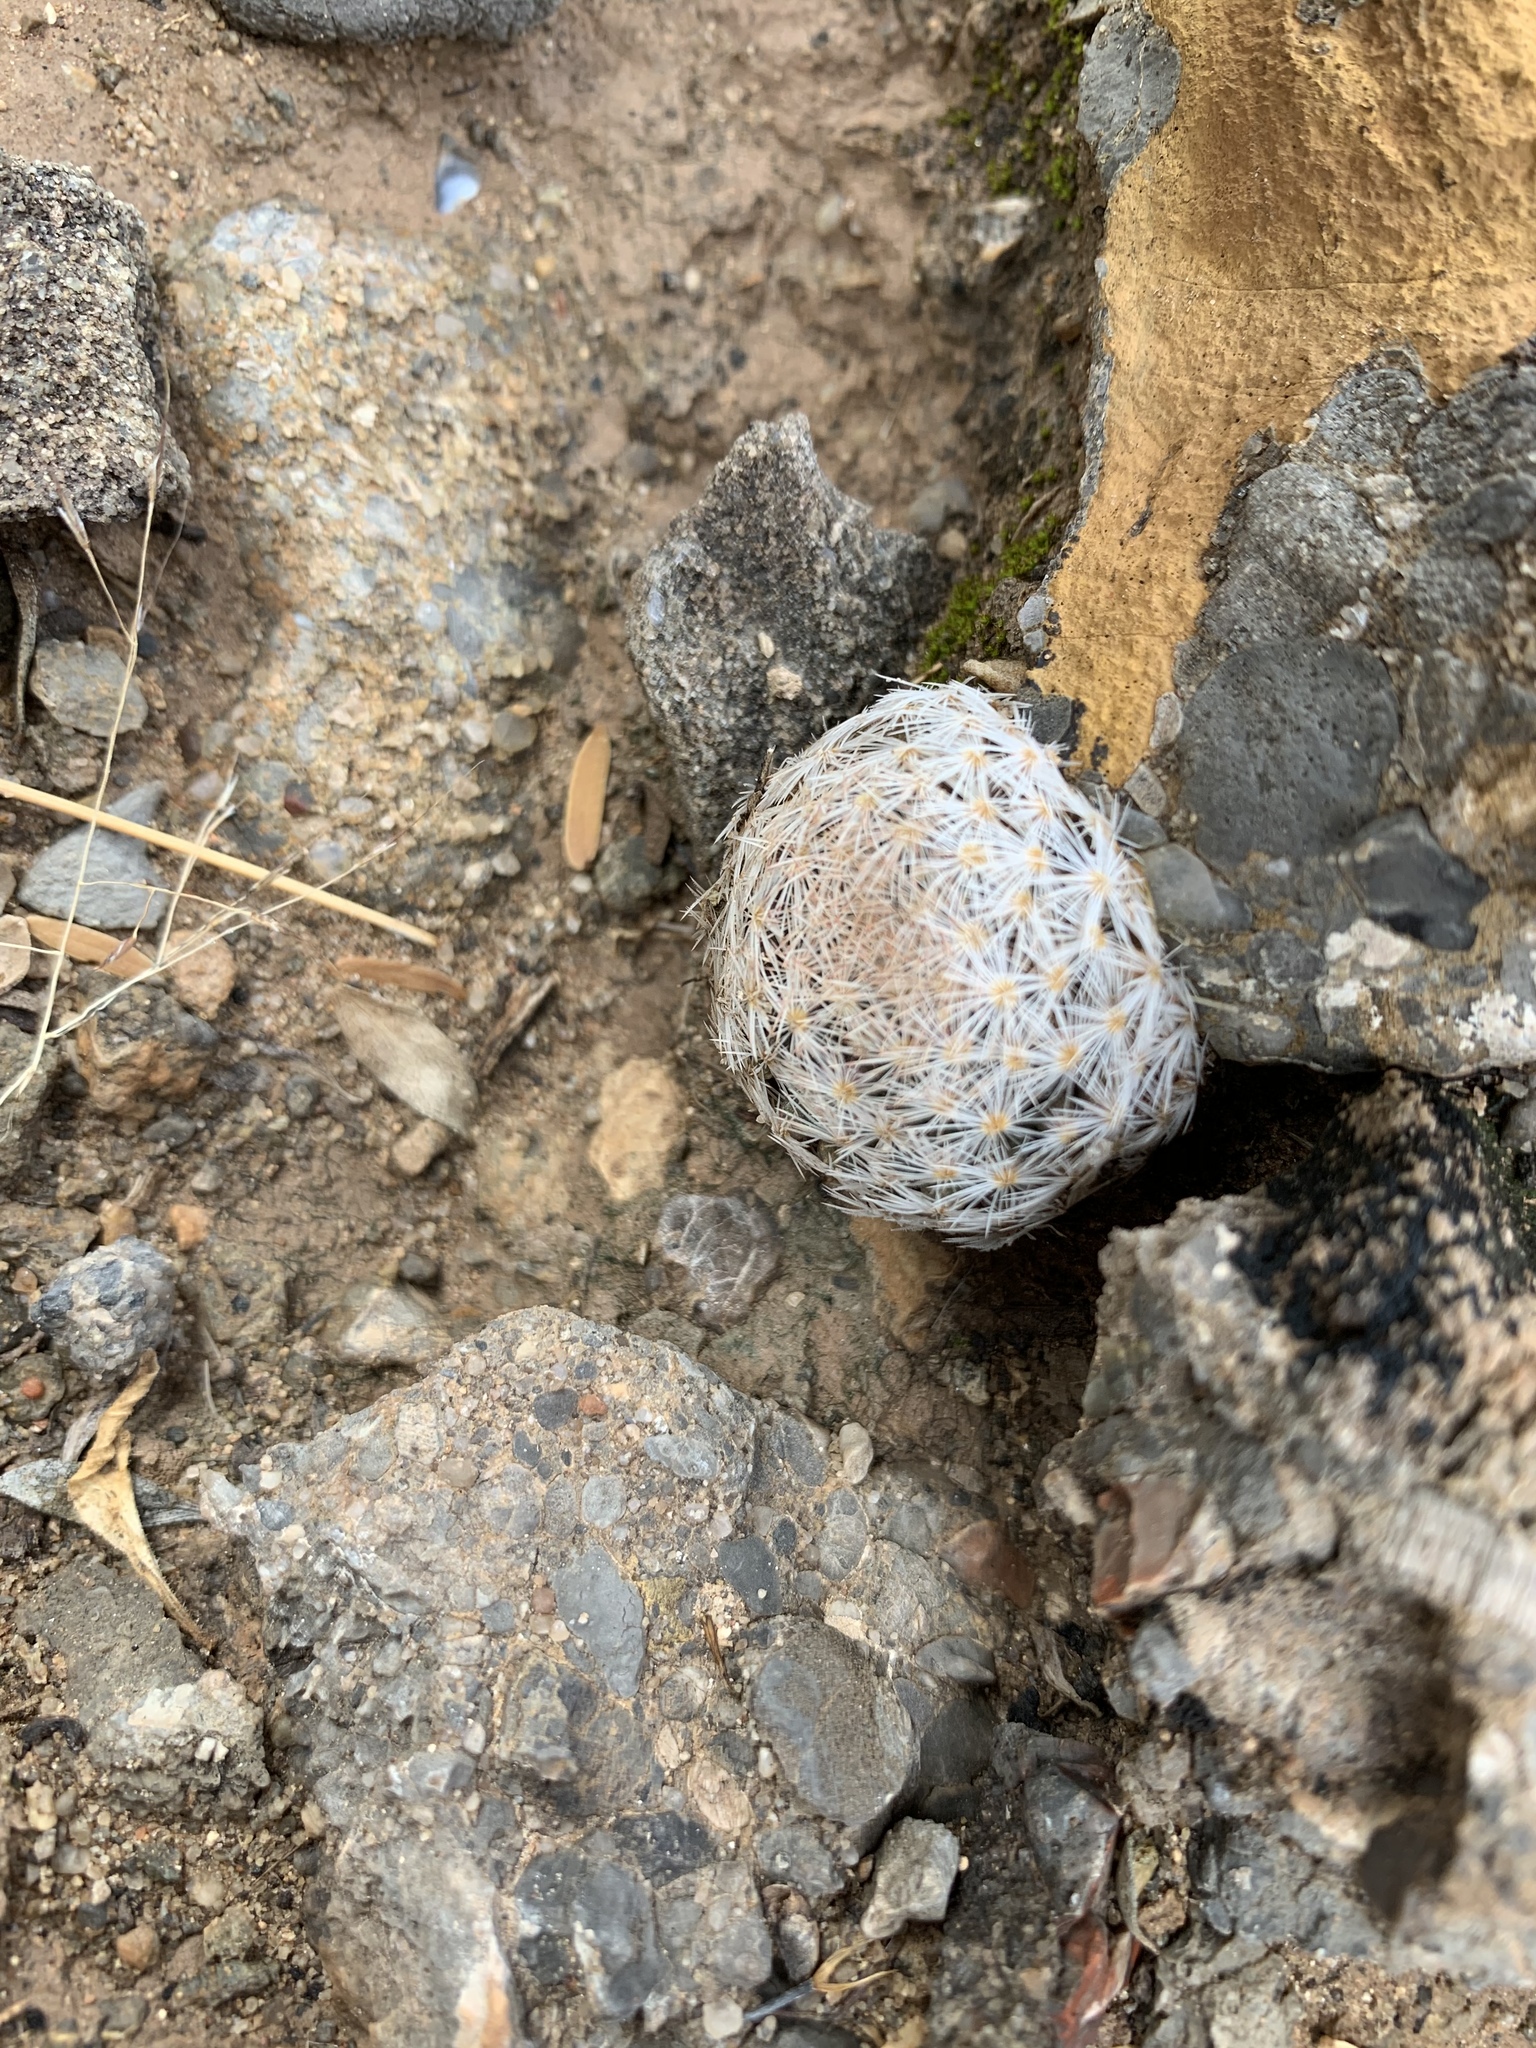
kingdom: Plantae
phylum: Tracheophyta
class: Magnoliopsida
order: Caryophyllales
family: Cactaceae
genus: Mammillaria
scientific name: Mammillaria lasiacantha
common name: Lace-spine nipple cactus
